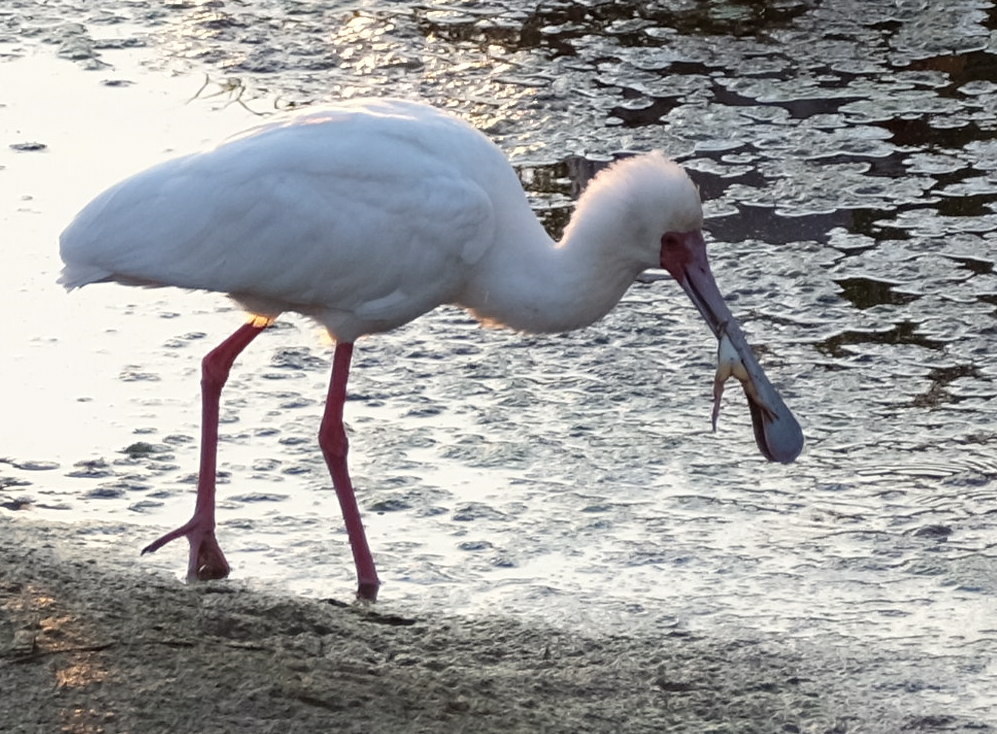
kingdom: Animalia
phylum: Chordata
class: Aves
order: Pelecaniformes
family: Threskiornithidae
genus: Platalea
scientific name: Platalea alba
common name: African spoonbill
